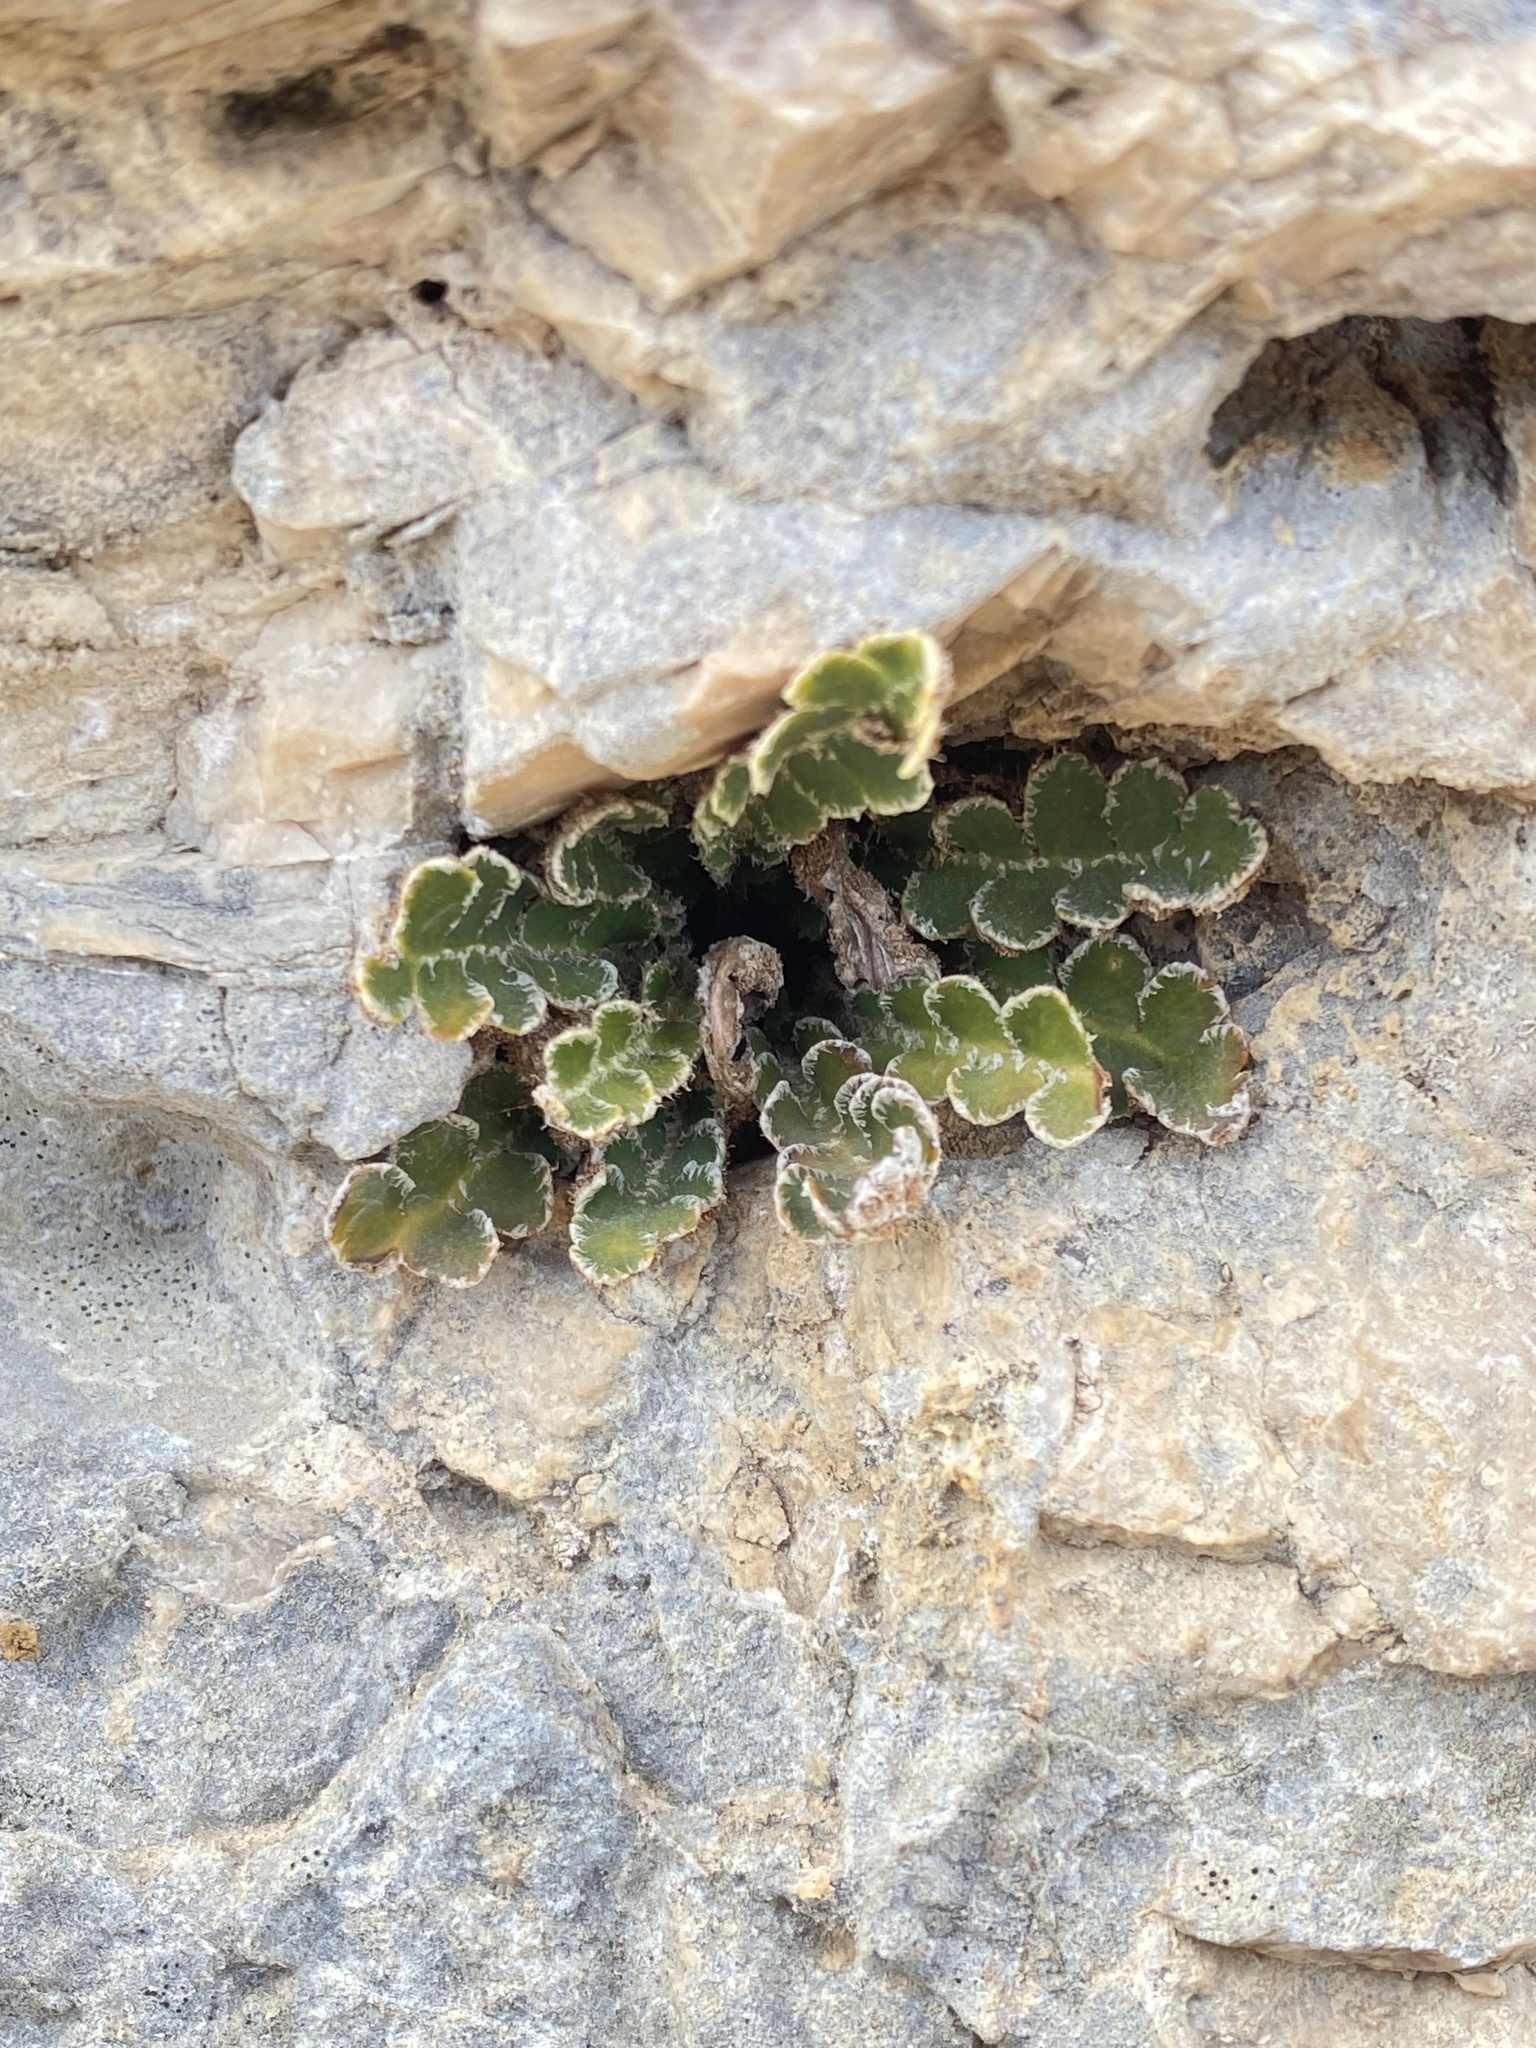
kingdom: Plantae
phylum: Tracheophyta
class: Polypodiopsida
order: Polypodiales
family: Aspleniaceae
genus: Asplenium
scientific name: Asplenium ceterach
